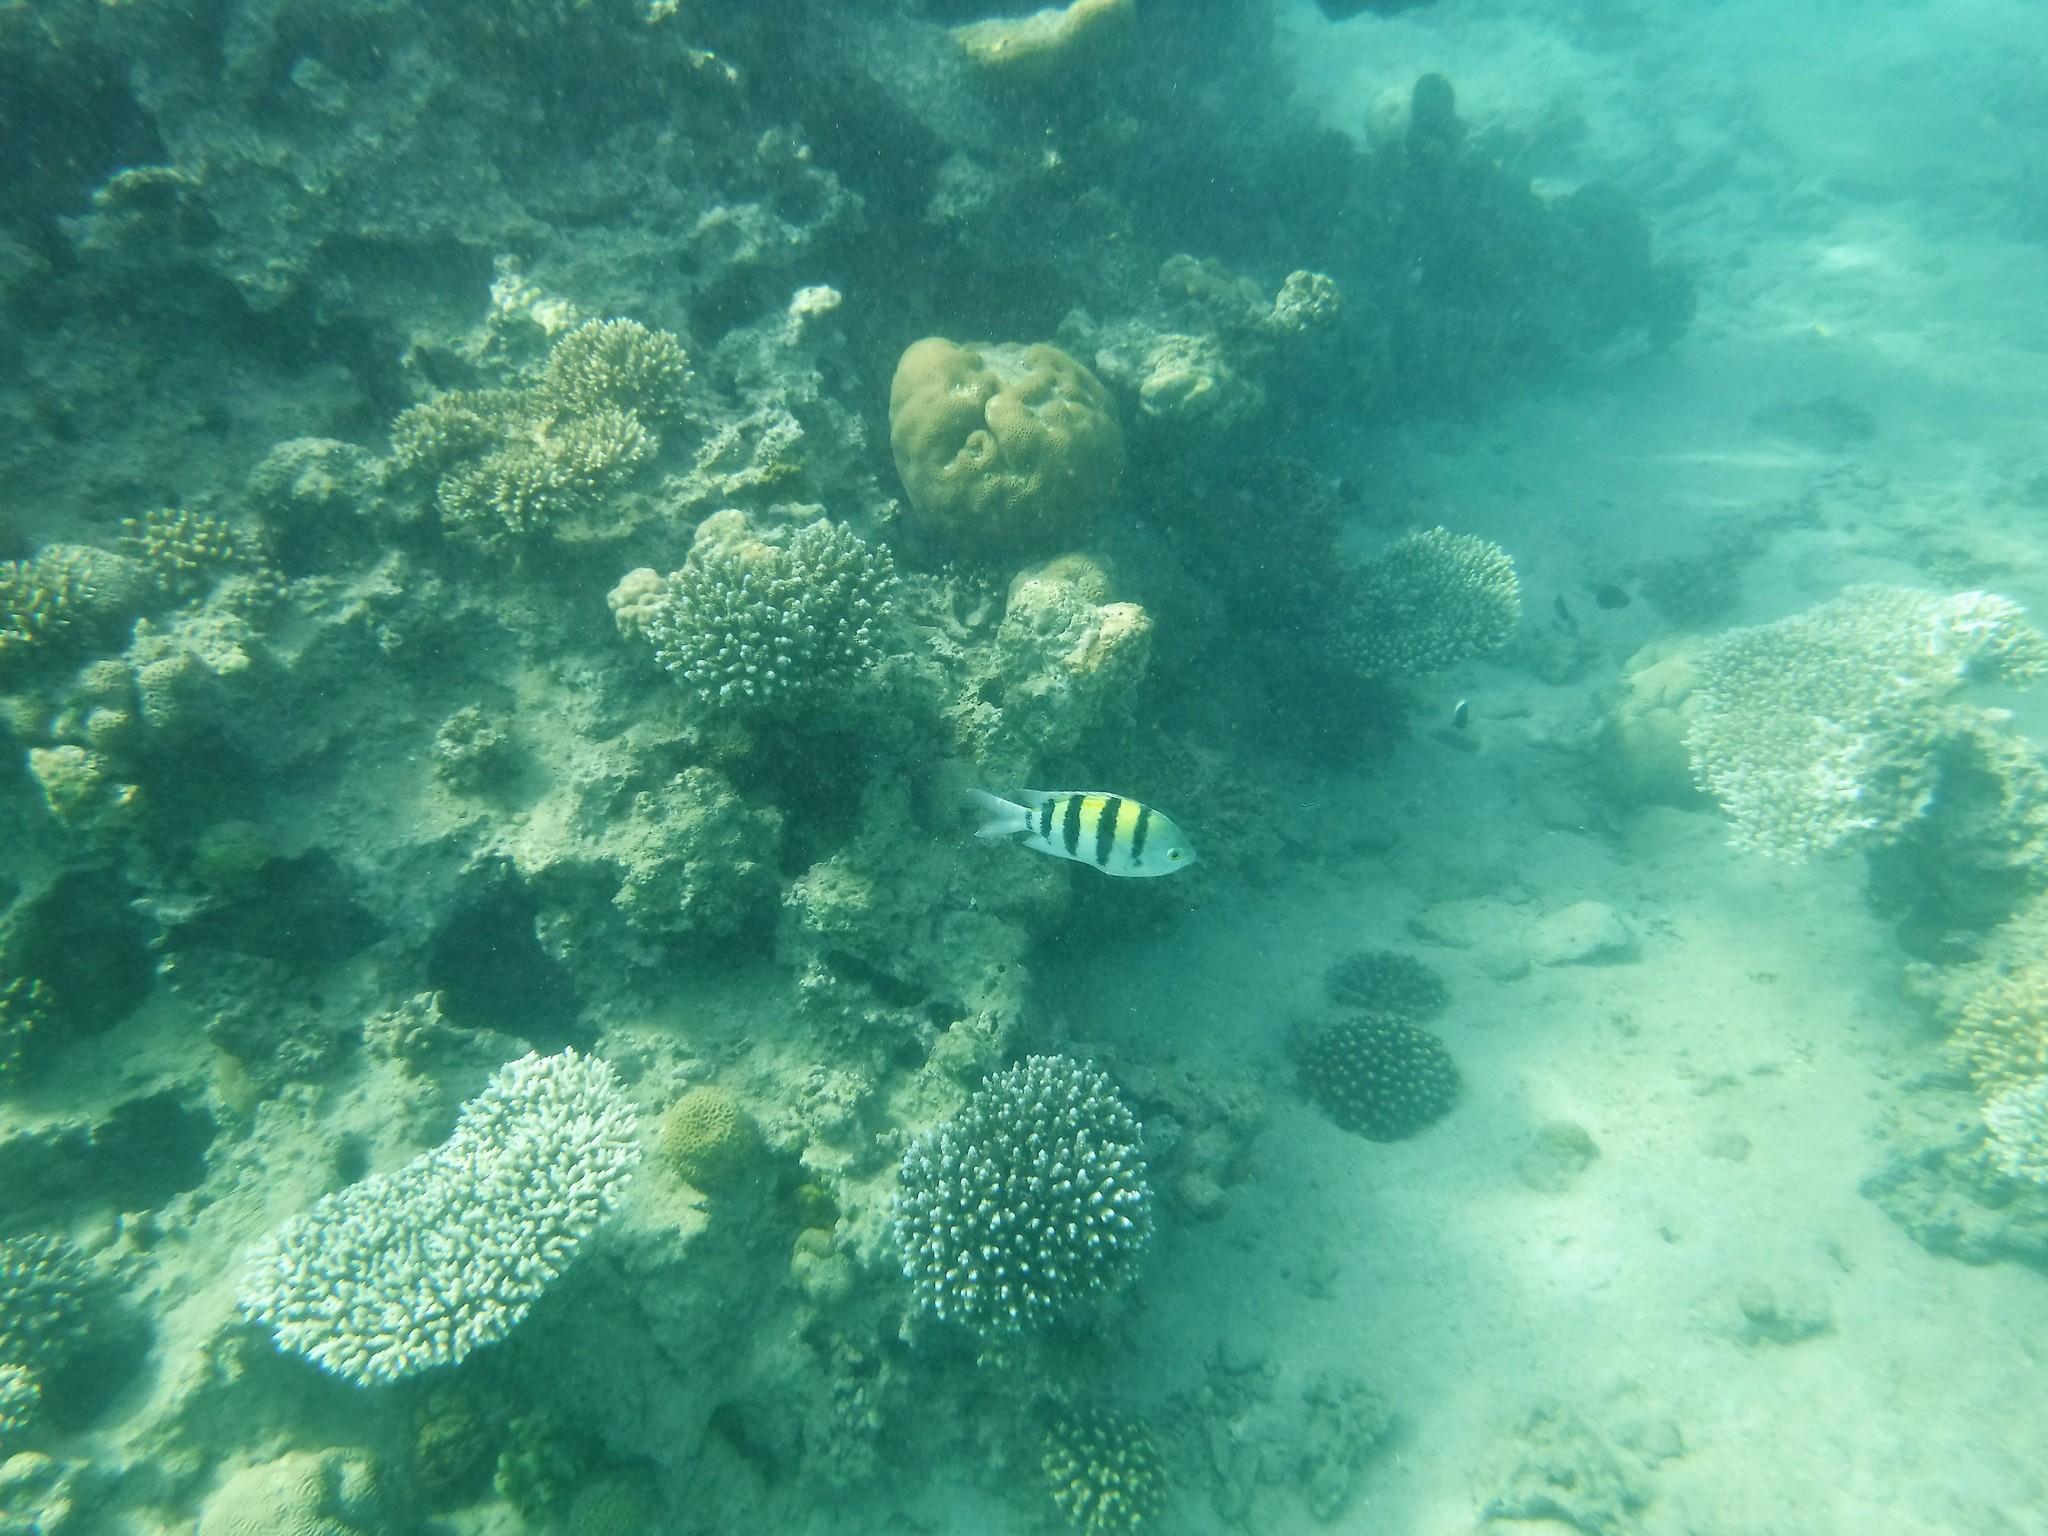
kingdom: Animalia
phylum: Chordata
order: Perciformes
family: Pomacentridae
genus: Abudefduf
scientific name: Abudefduf vaigiensis
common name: Indo-pacific sergeant
